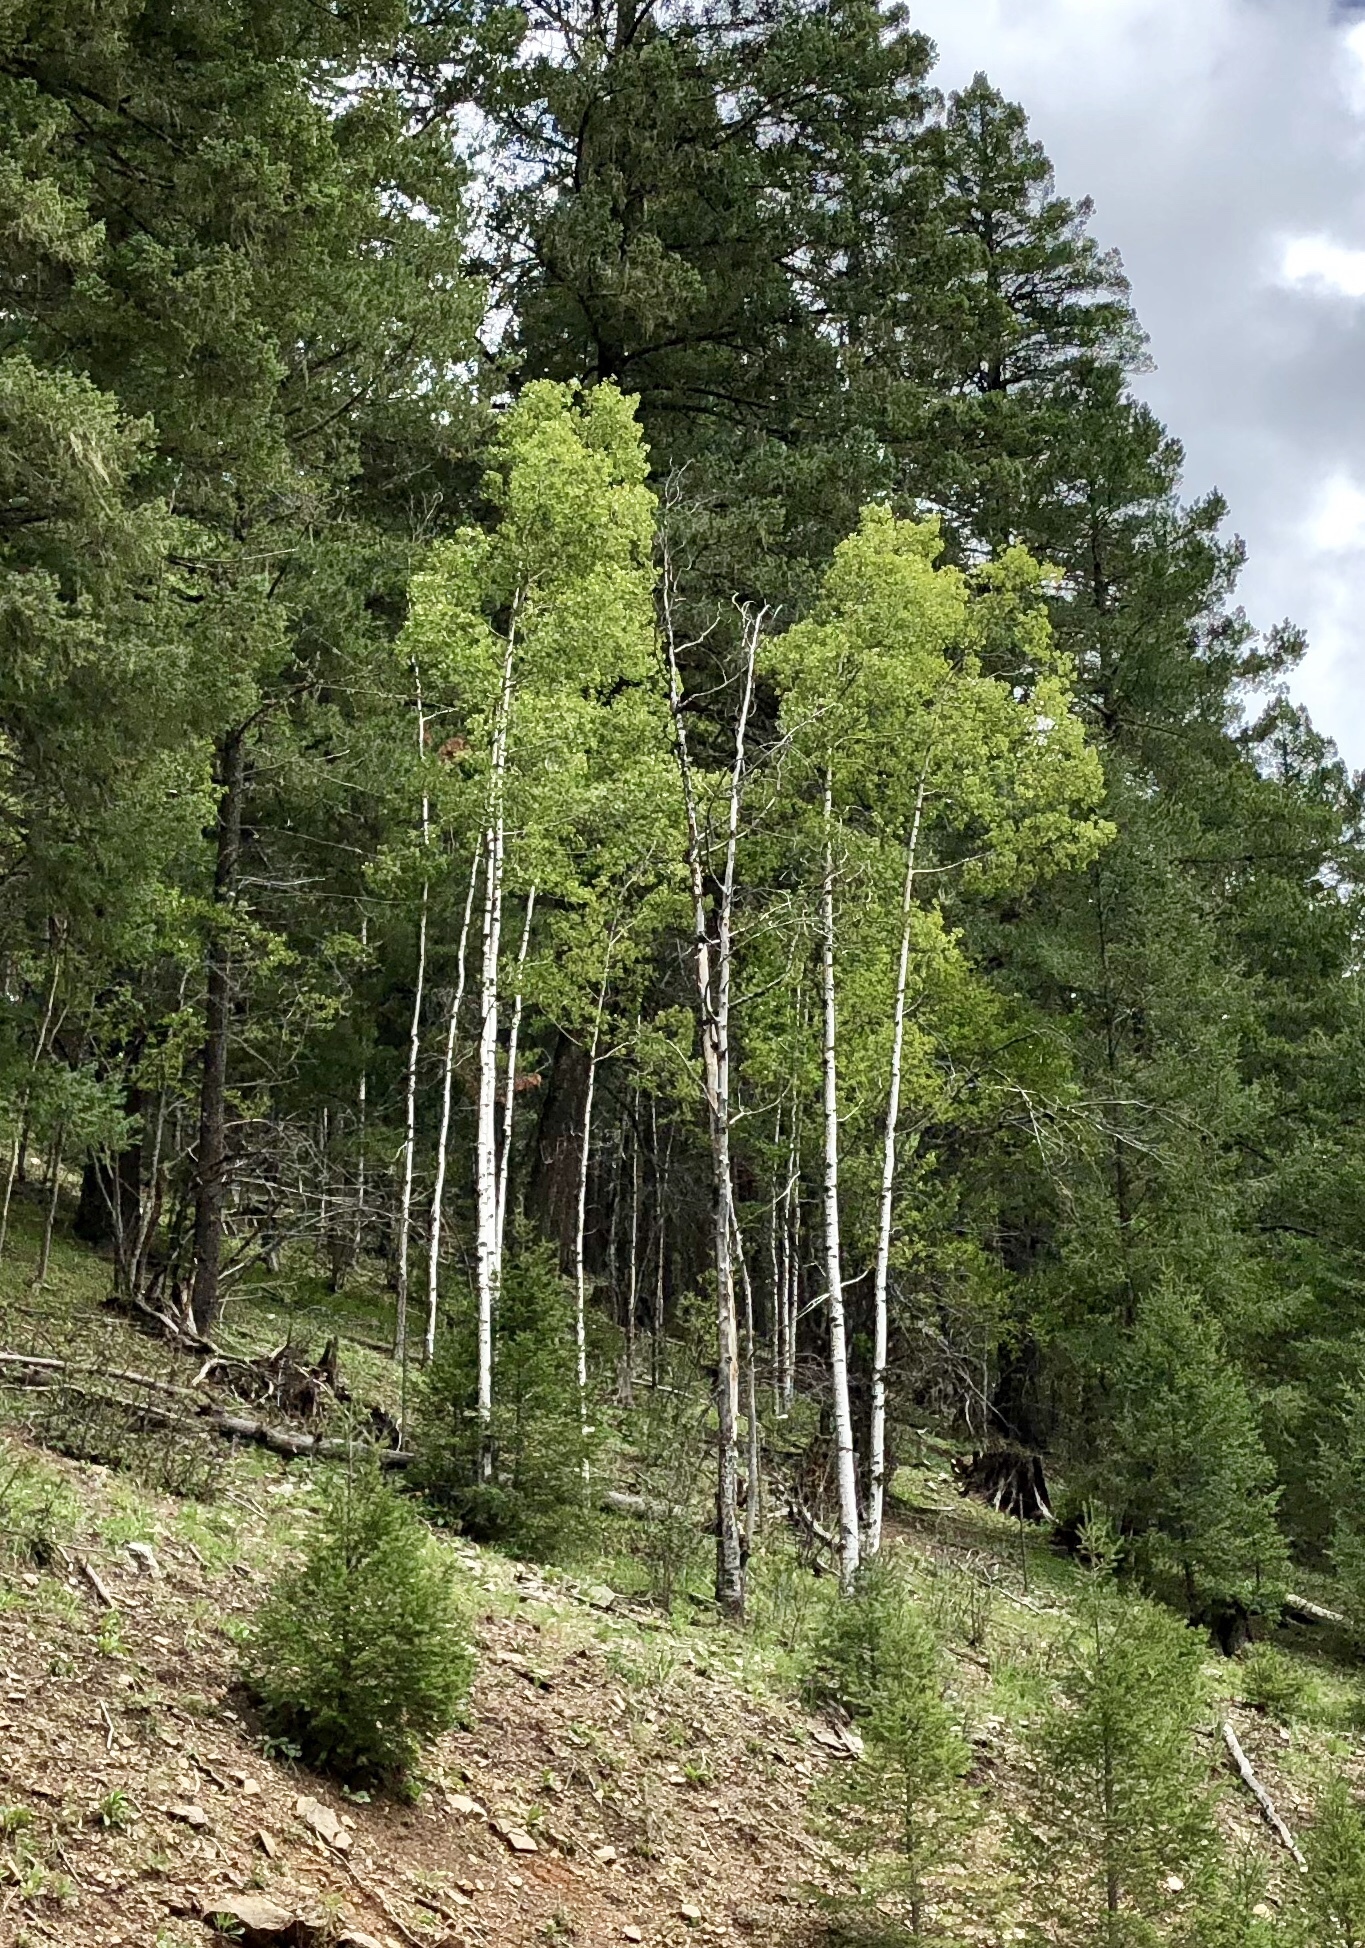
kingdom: Plantae
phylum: Tracheophyta
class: Magnoliopsida
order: Malpighiales
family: Salicaceae
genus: Populus
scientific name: Populus tremuloides
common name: Quaking aspen
